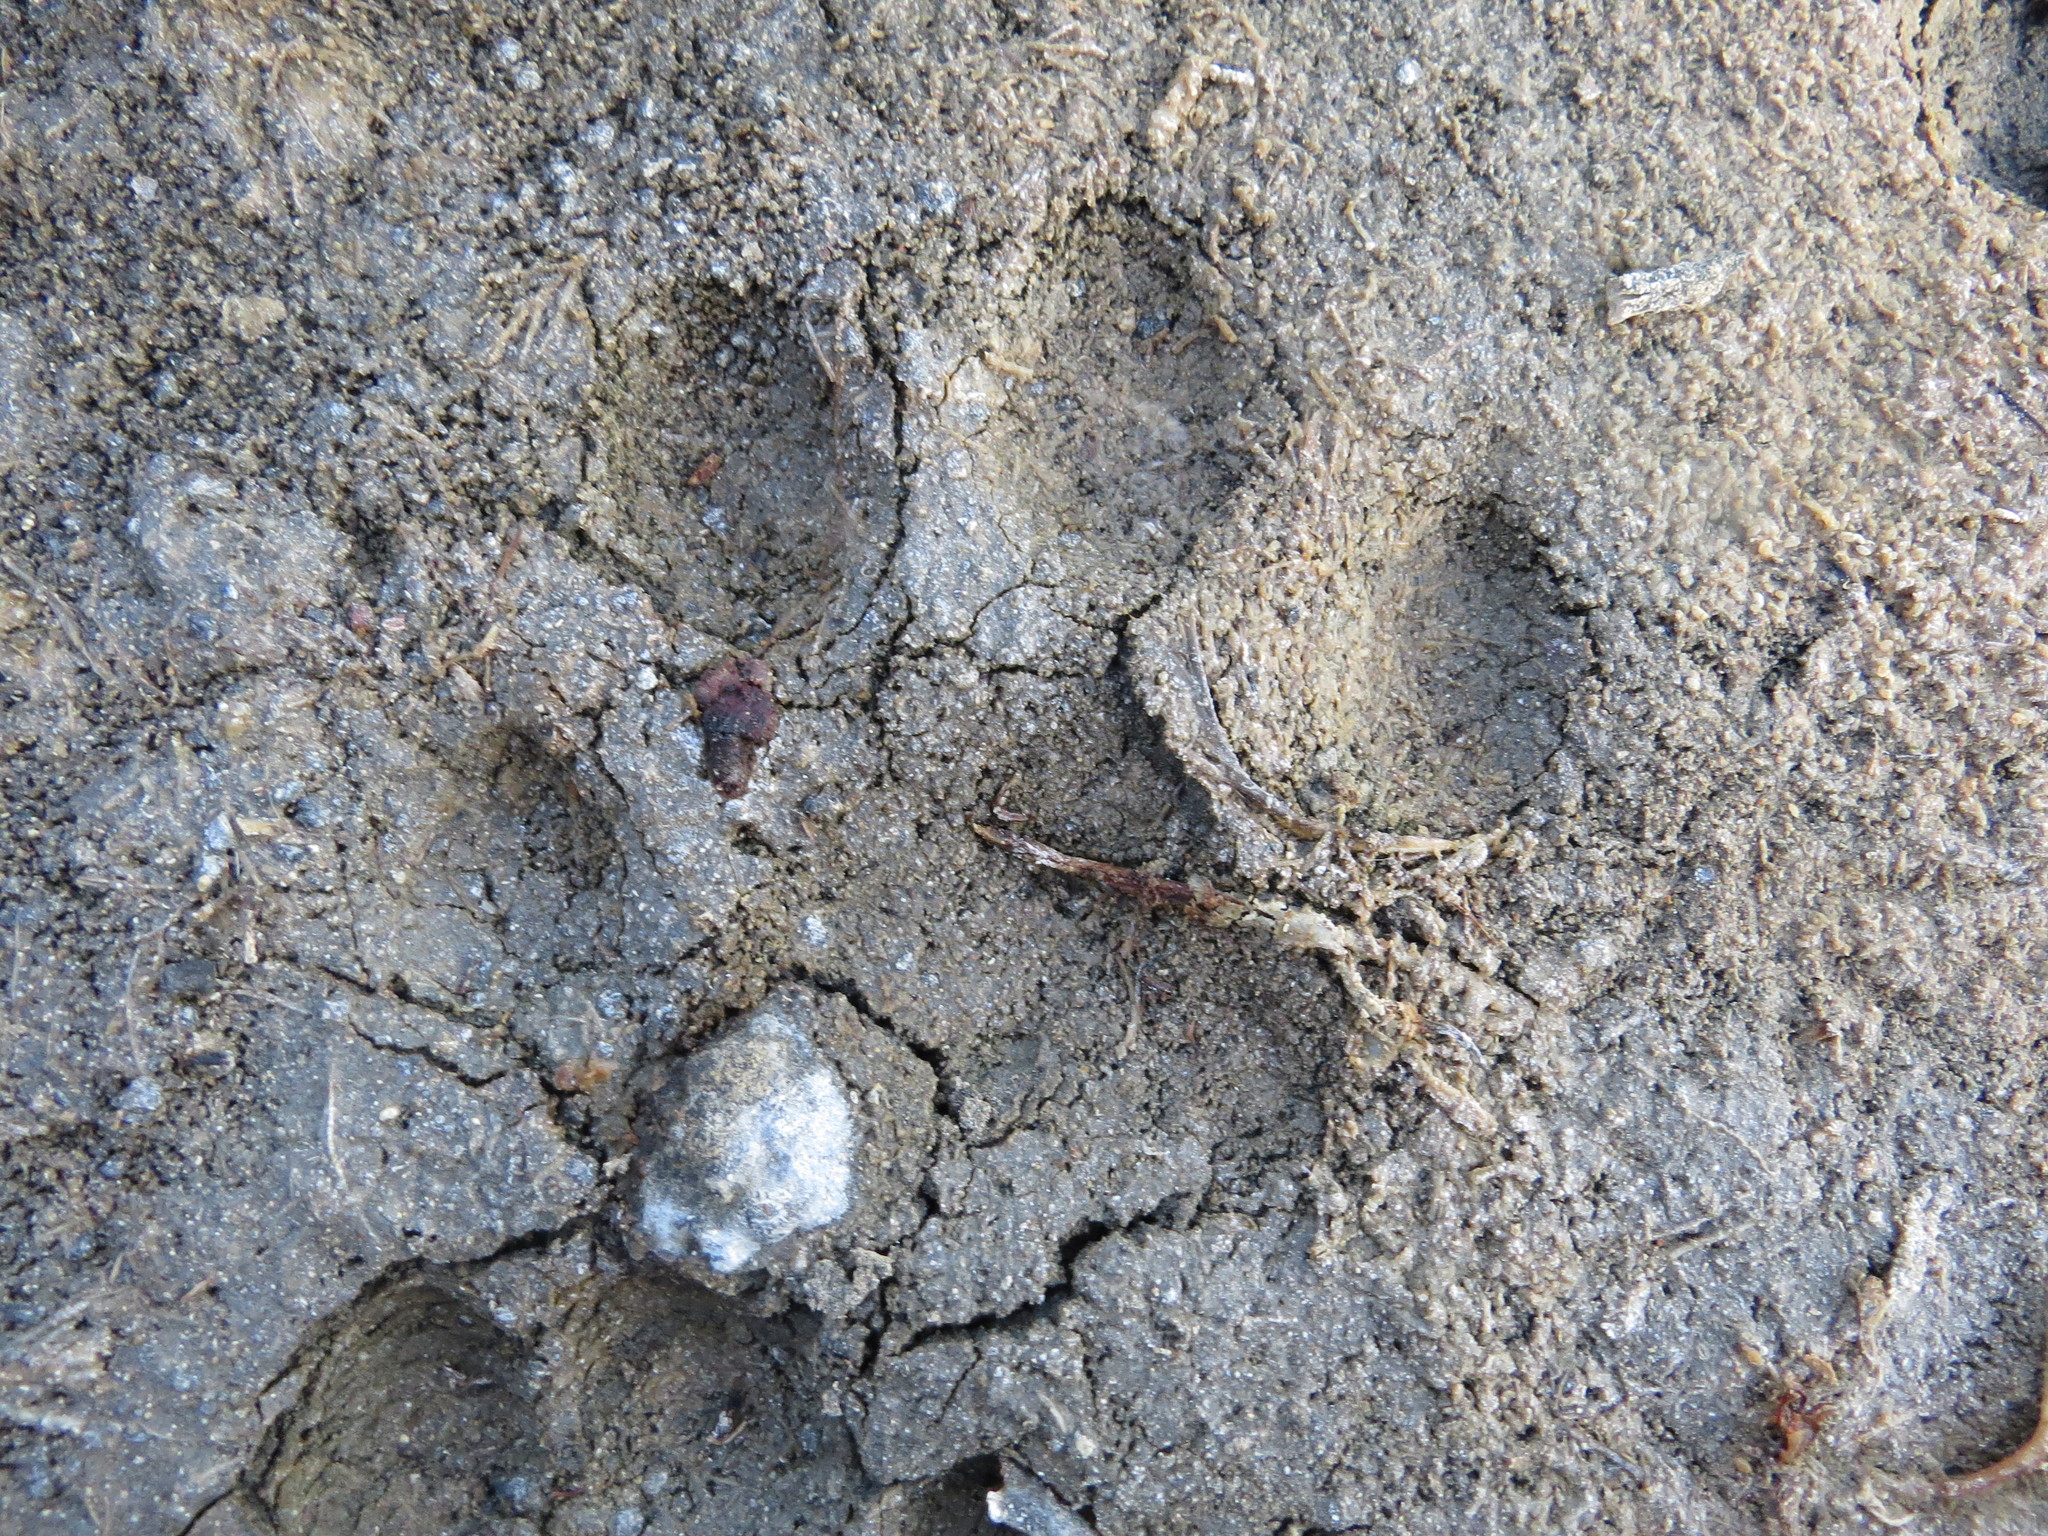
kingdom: Animalia
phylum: Chordata
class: Mammalia
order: Carnivora
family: Felidae
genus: Puma
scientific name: Puma concolor
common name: Puma
